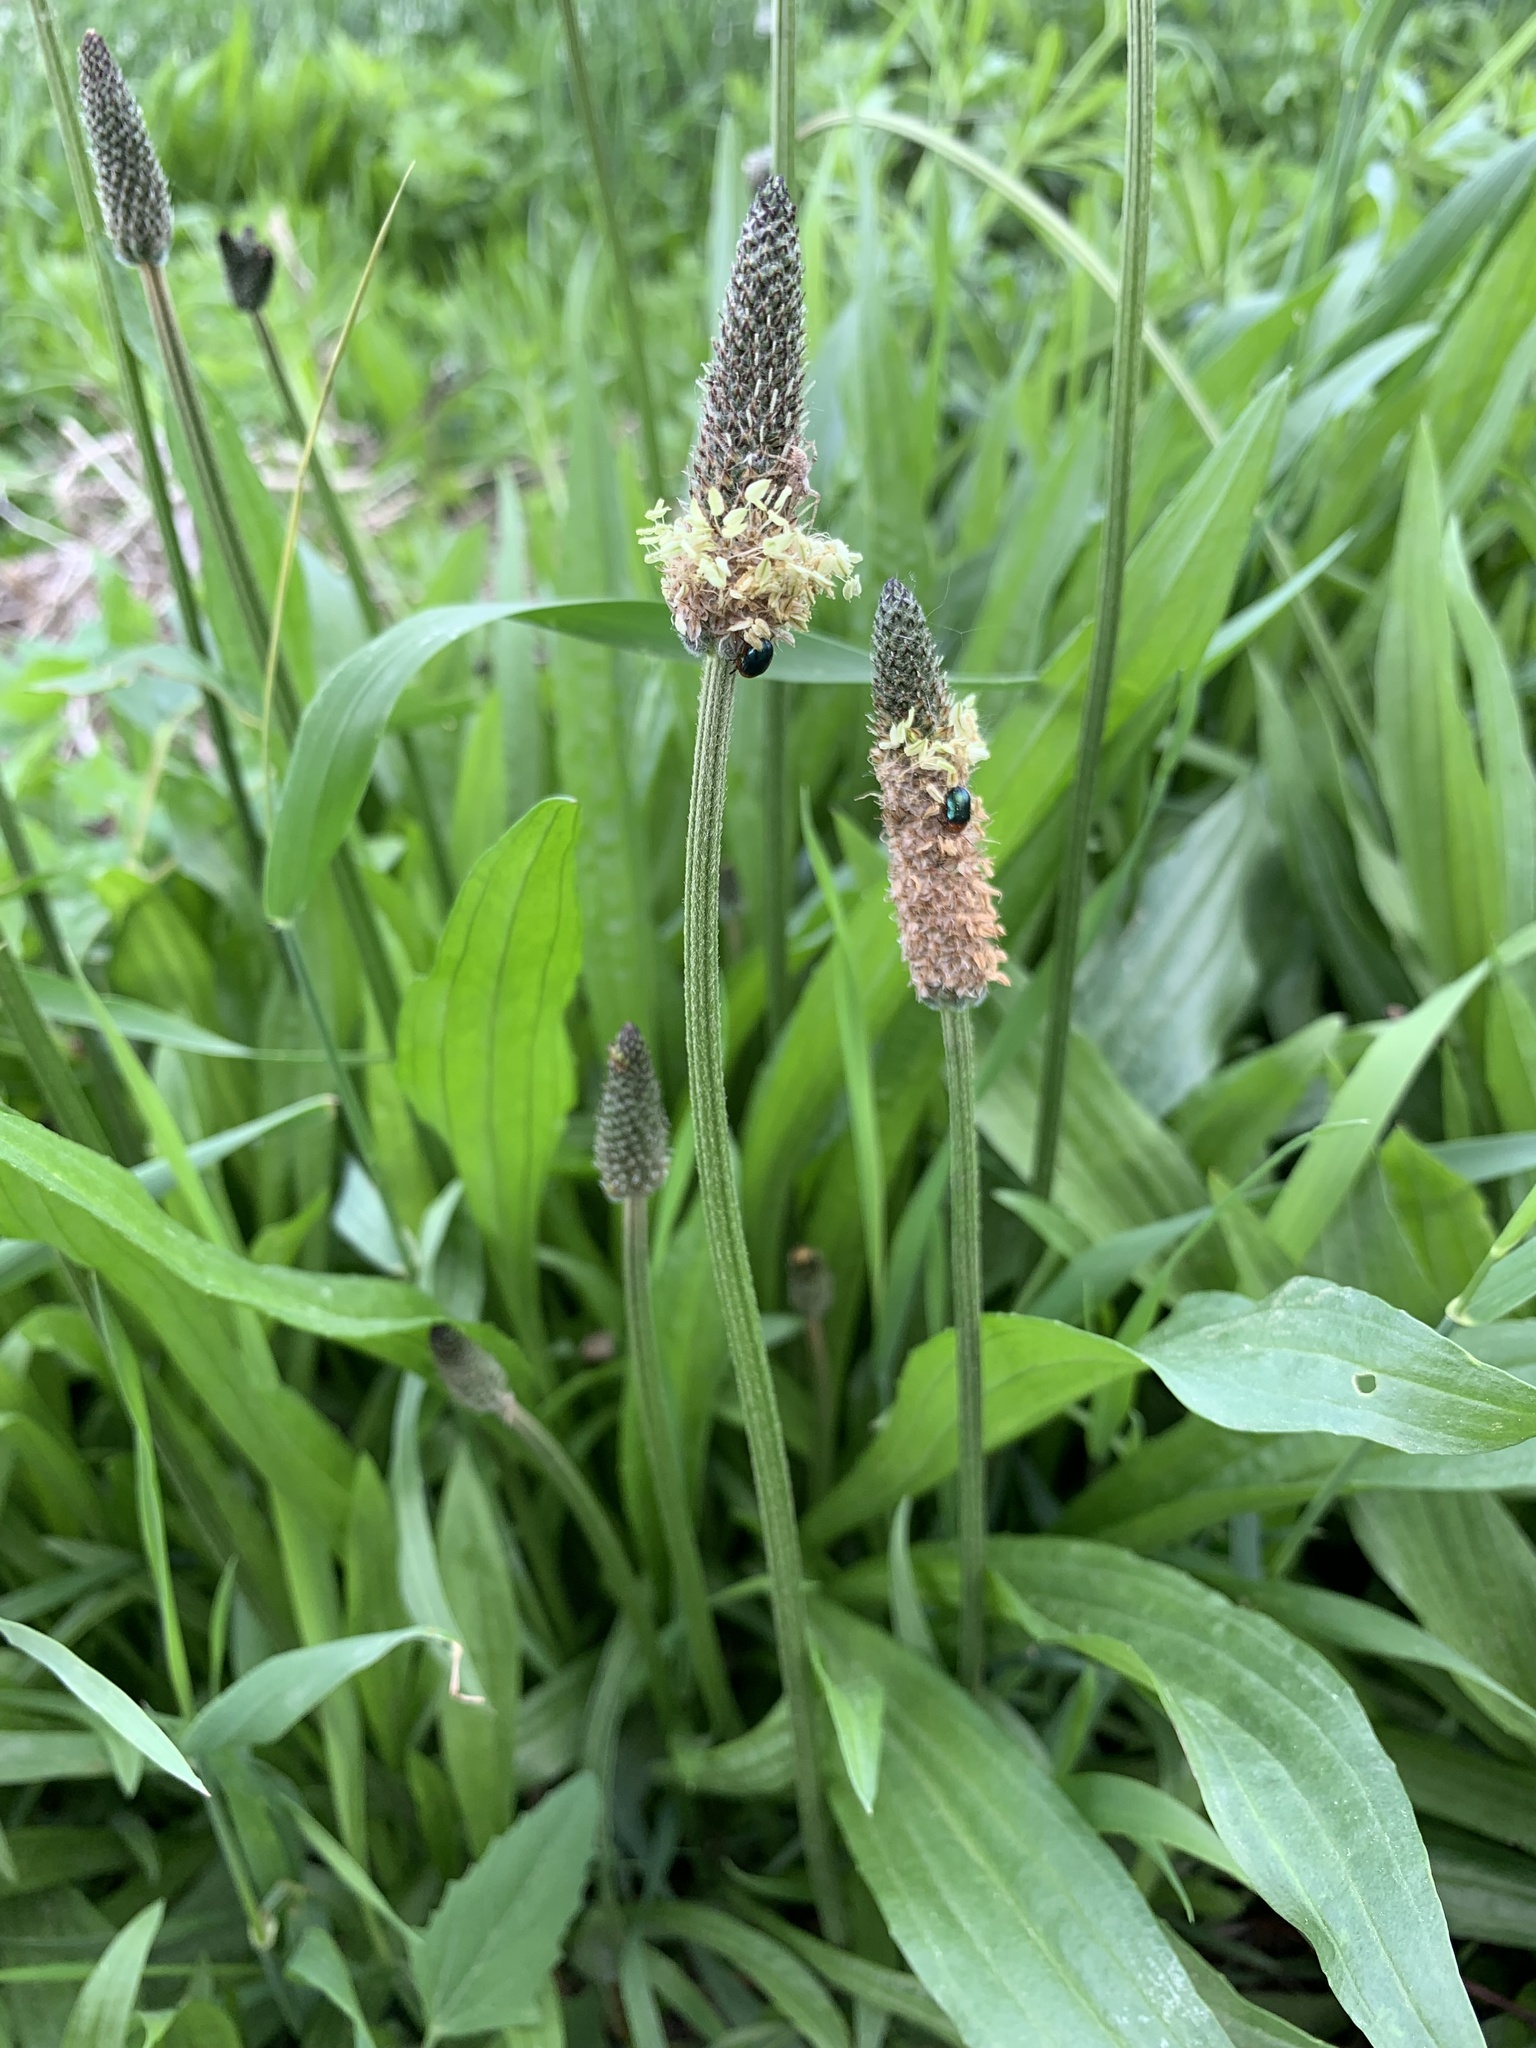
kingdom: Plantae
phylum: Tracheophyta
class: Magnoliopsida
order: Lamiales
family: Plantaginaceae
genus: Plantago
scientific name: Plantago lanceolata
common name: Ribwort plantain
